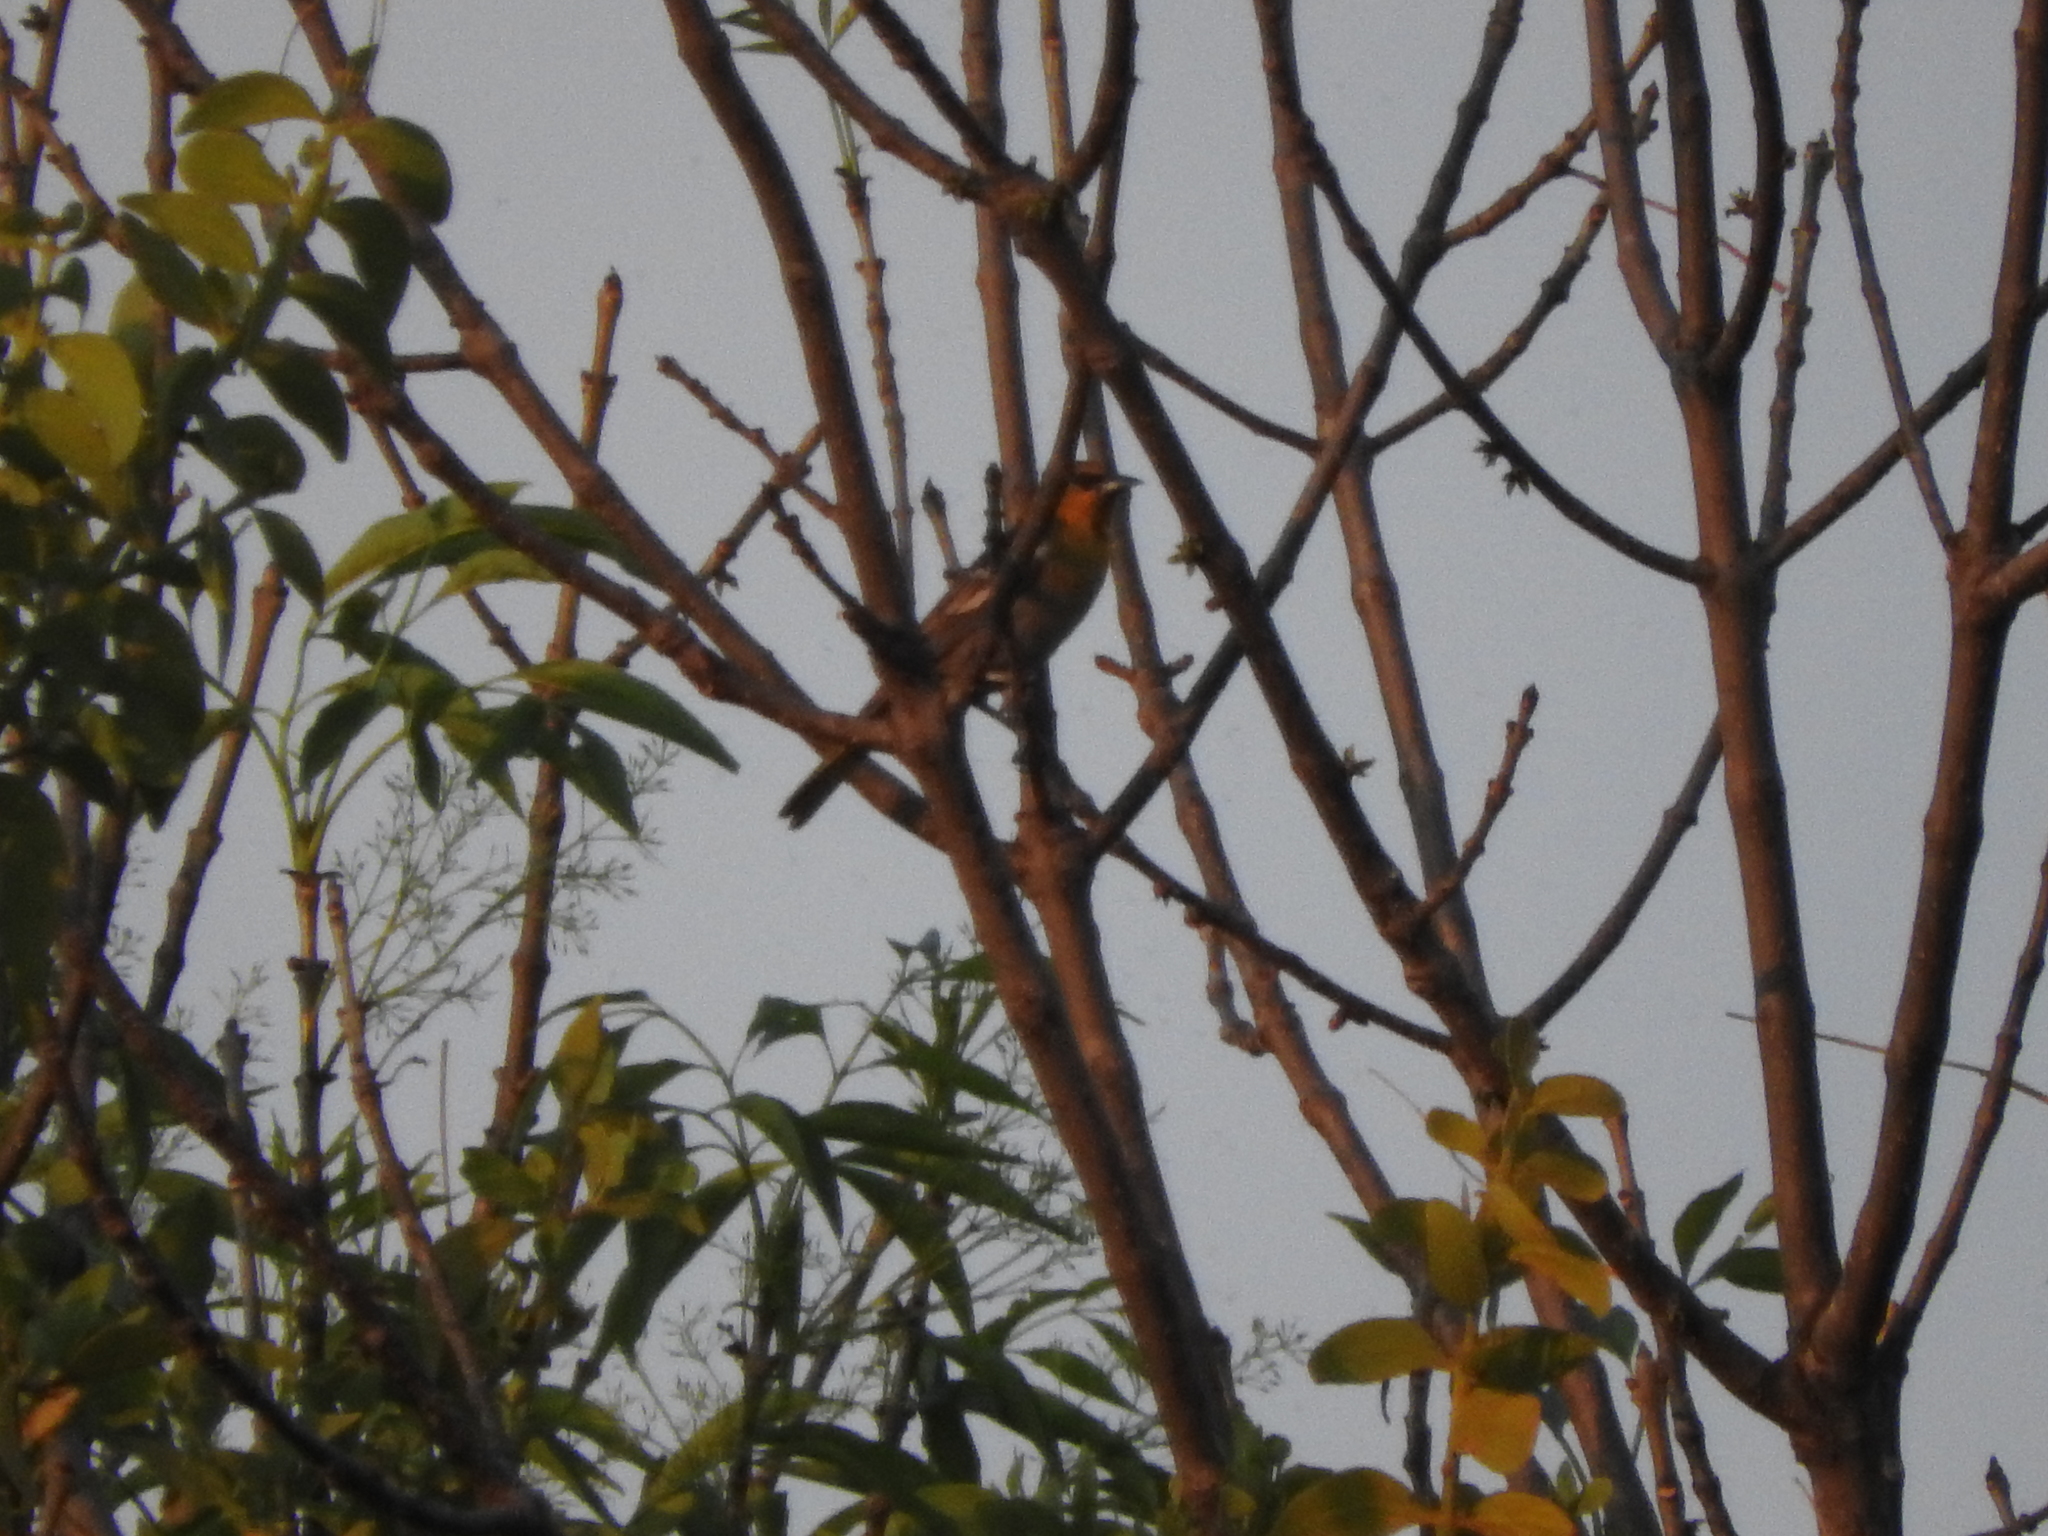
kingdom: Animalia
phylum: Chordata
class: Aves
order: Passeriformes
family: Icteridae
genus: Icterus
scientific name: Icterus abeillei
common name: Black-backed oriole
